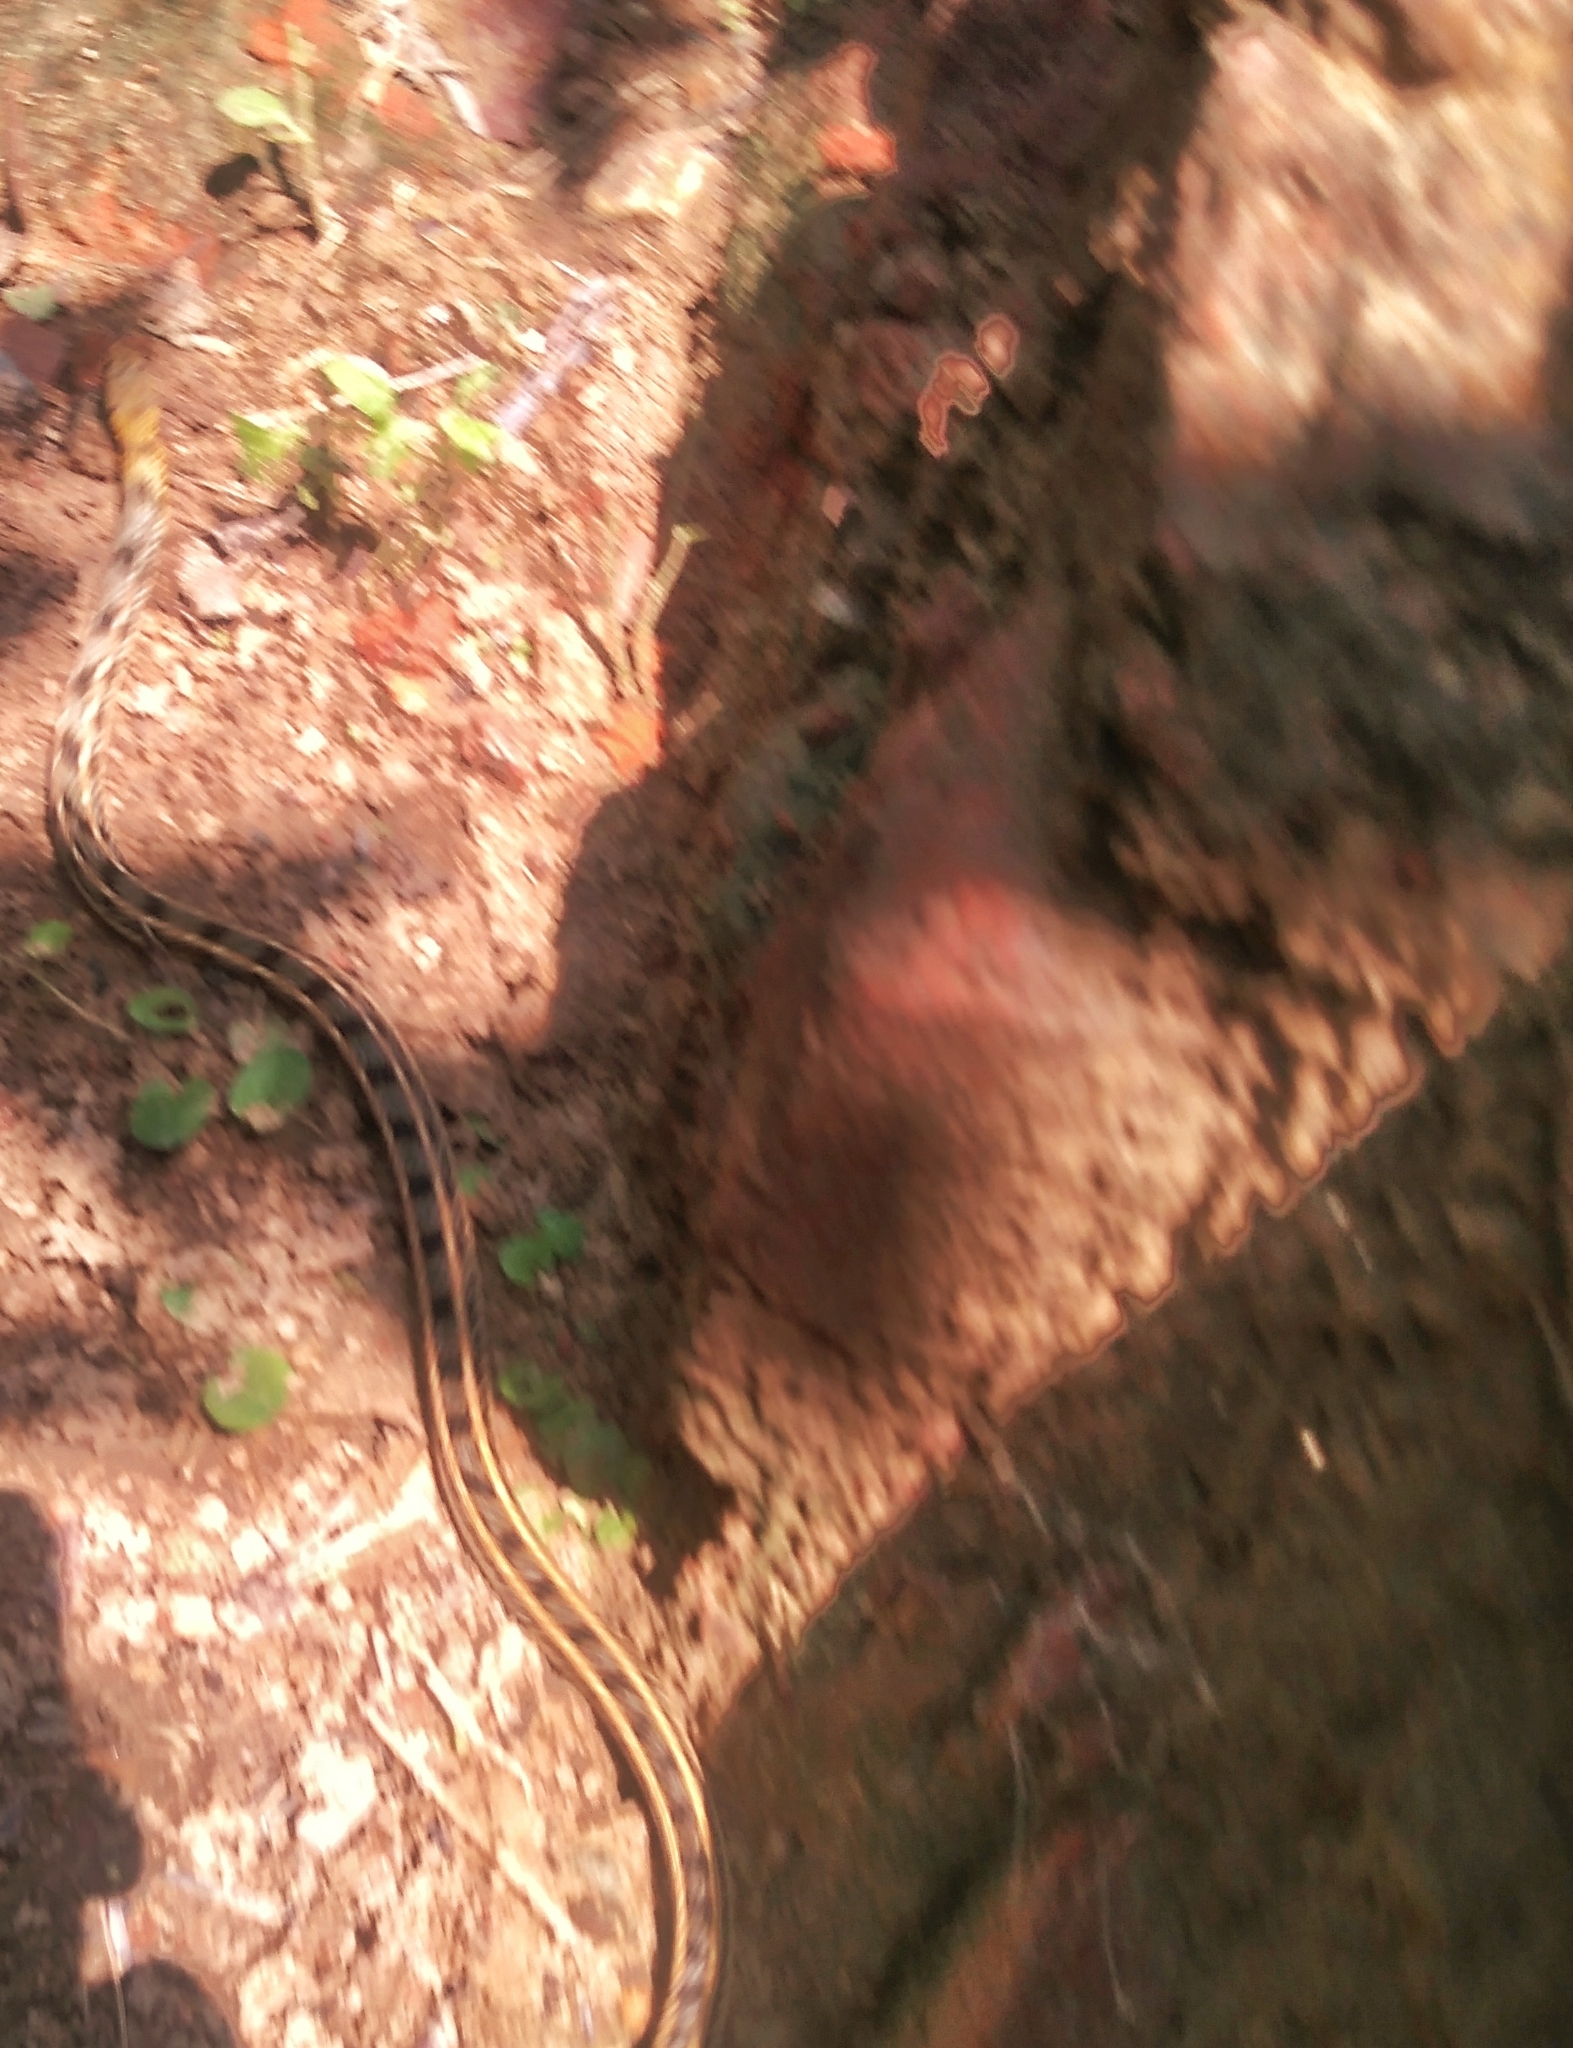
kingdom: Animalia
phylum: Chordata
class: Squamata
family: Colubridae
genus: Amphiesma
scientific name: Amphiesma stolatum
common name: Buff striped keelback
